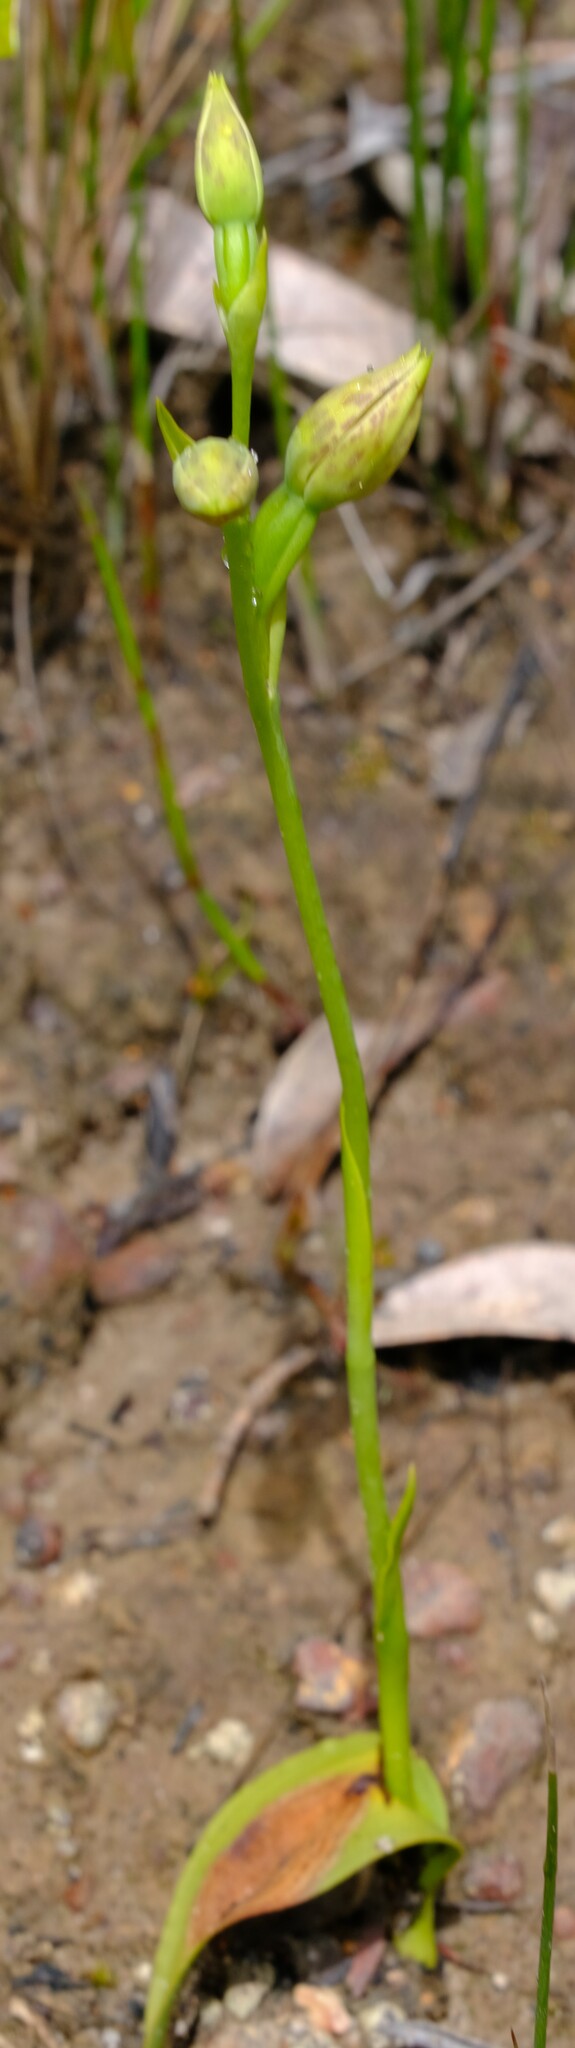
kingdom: Plantae
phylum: Tracheophyta
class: Liliopsida
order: Asparagales
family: Orchidaceae
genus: Thelymitra
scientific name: Thelymitra benthamiana
